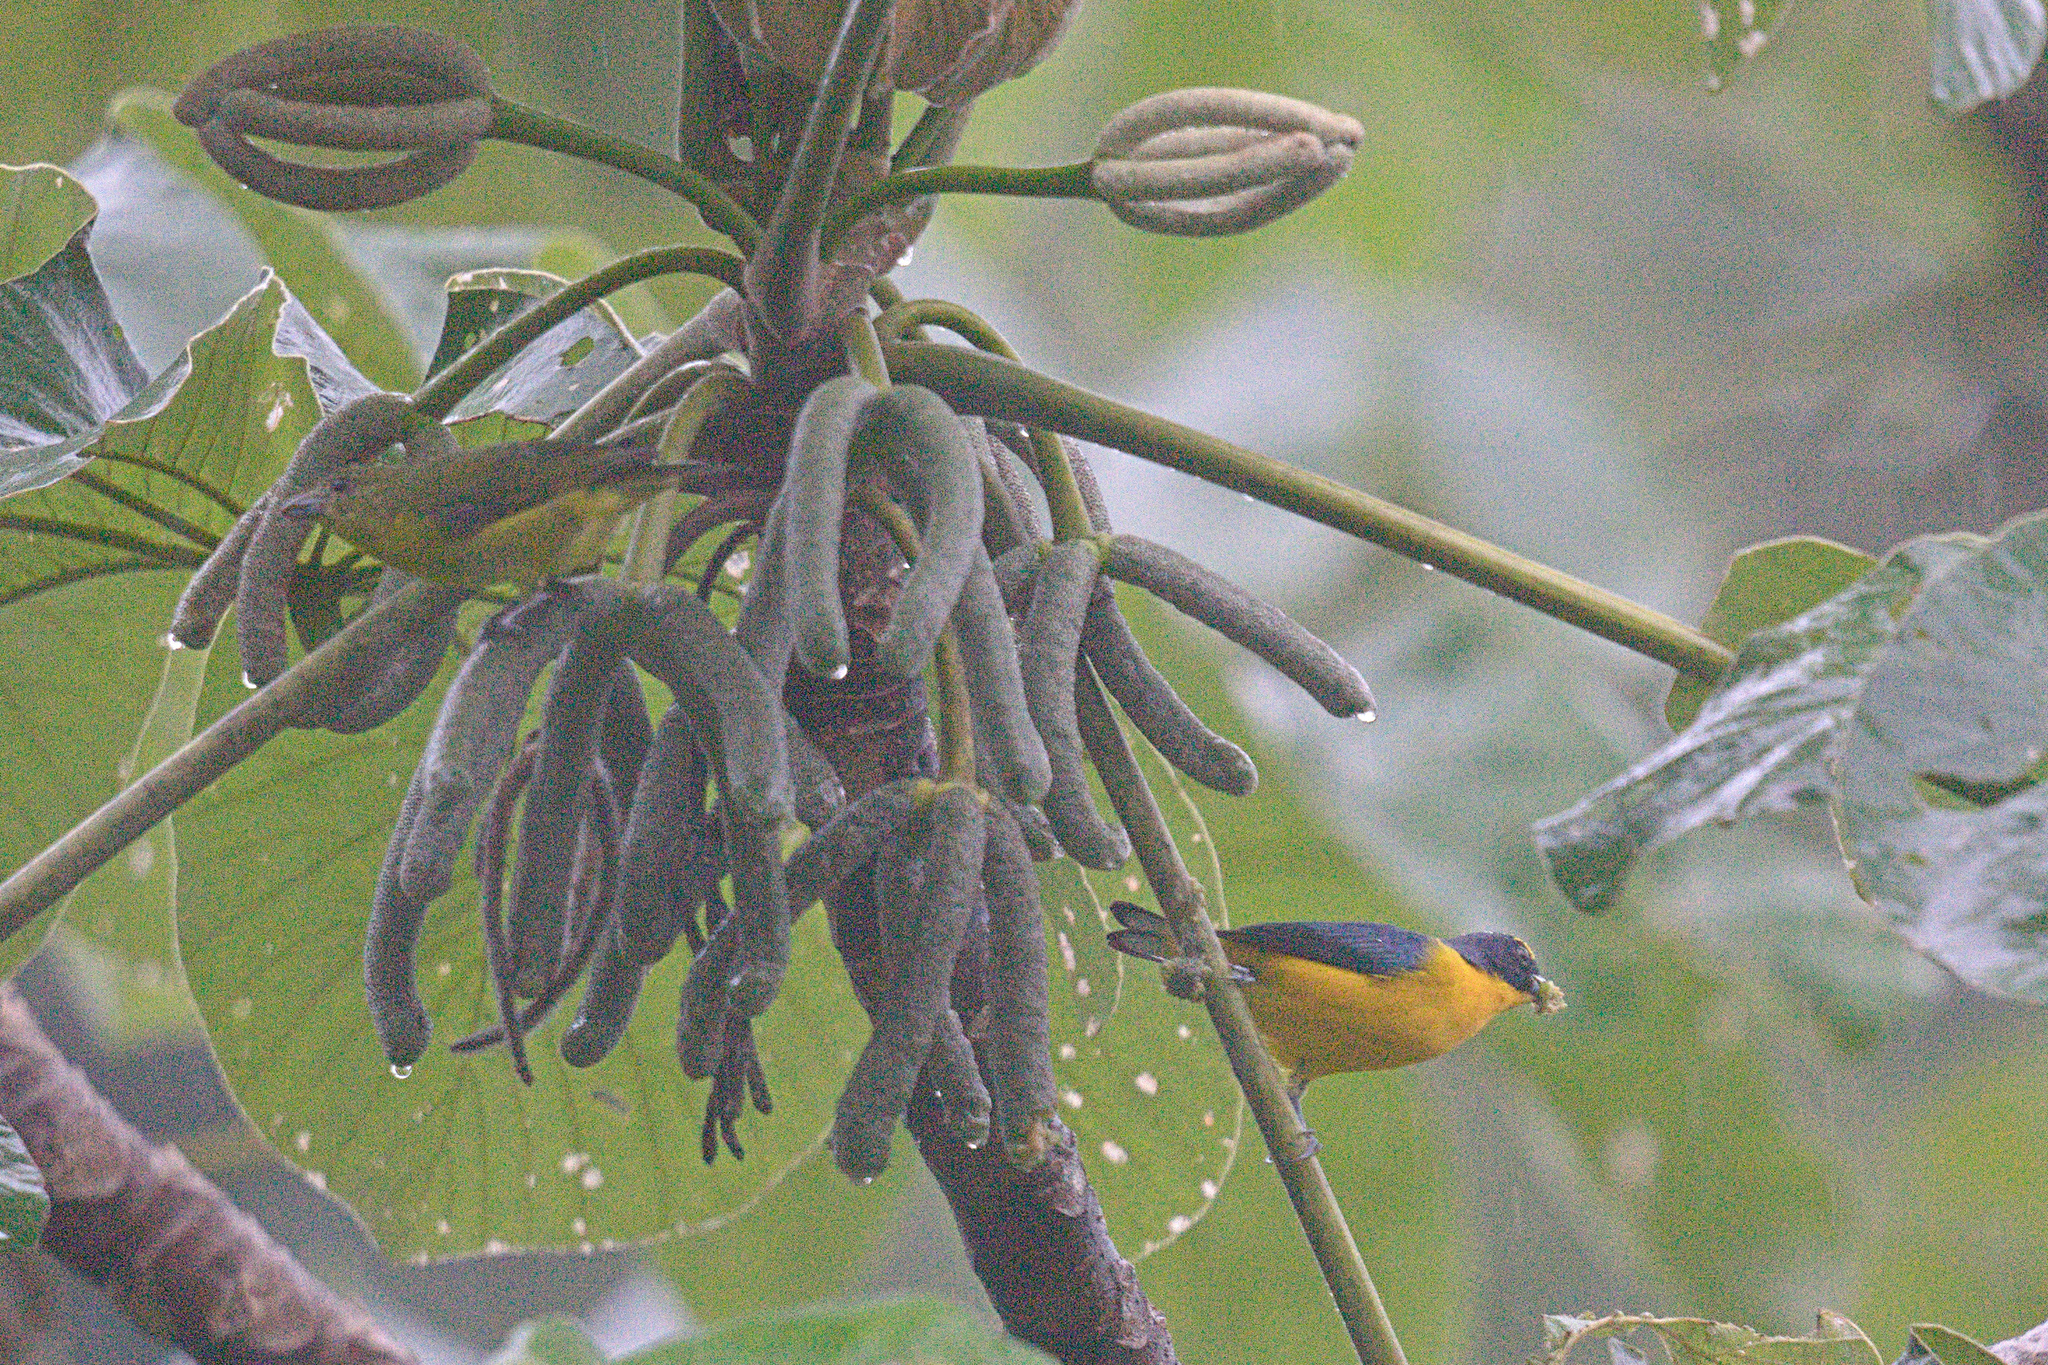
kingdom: Animalia
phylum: Chordata
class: Aves
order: Passeriformes
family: Fringillidae
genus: Euphonia
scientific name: Euphonia hirundinacea
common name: Yellow-throated euphonia
